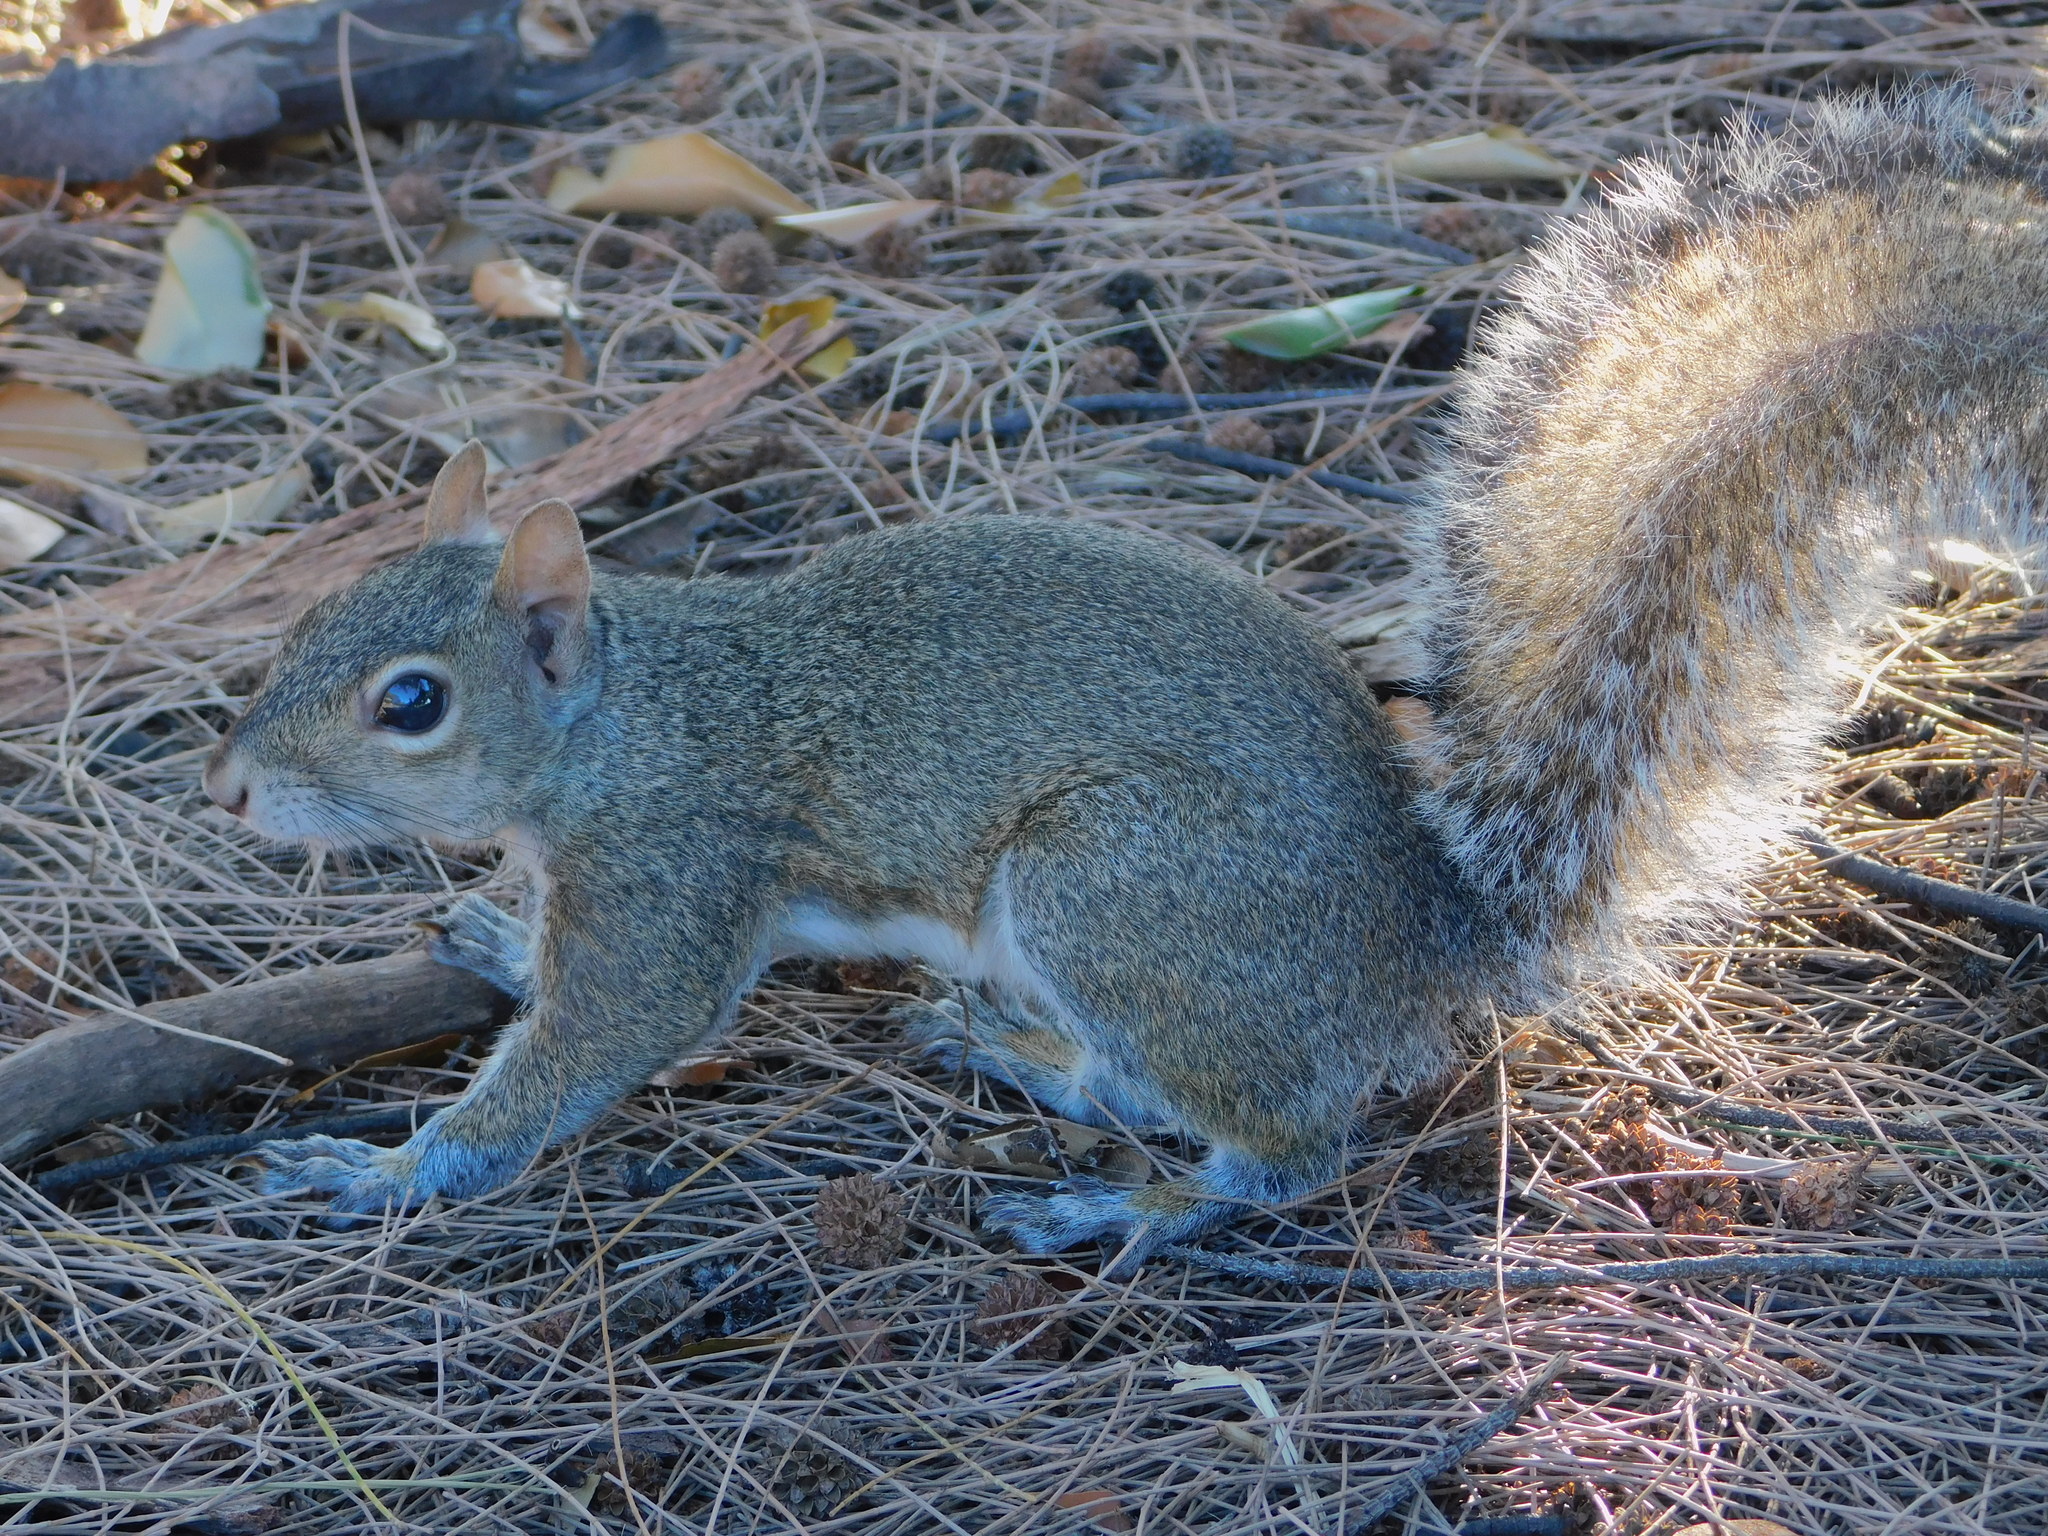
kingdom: Animalia
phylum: Chordata
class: Mammalia
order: Rodentia
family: Sciuridae
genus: Sciurus
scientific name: Sciurus carolinensis
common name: Eastern gray squirrel
